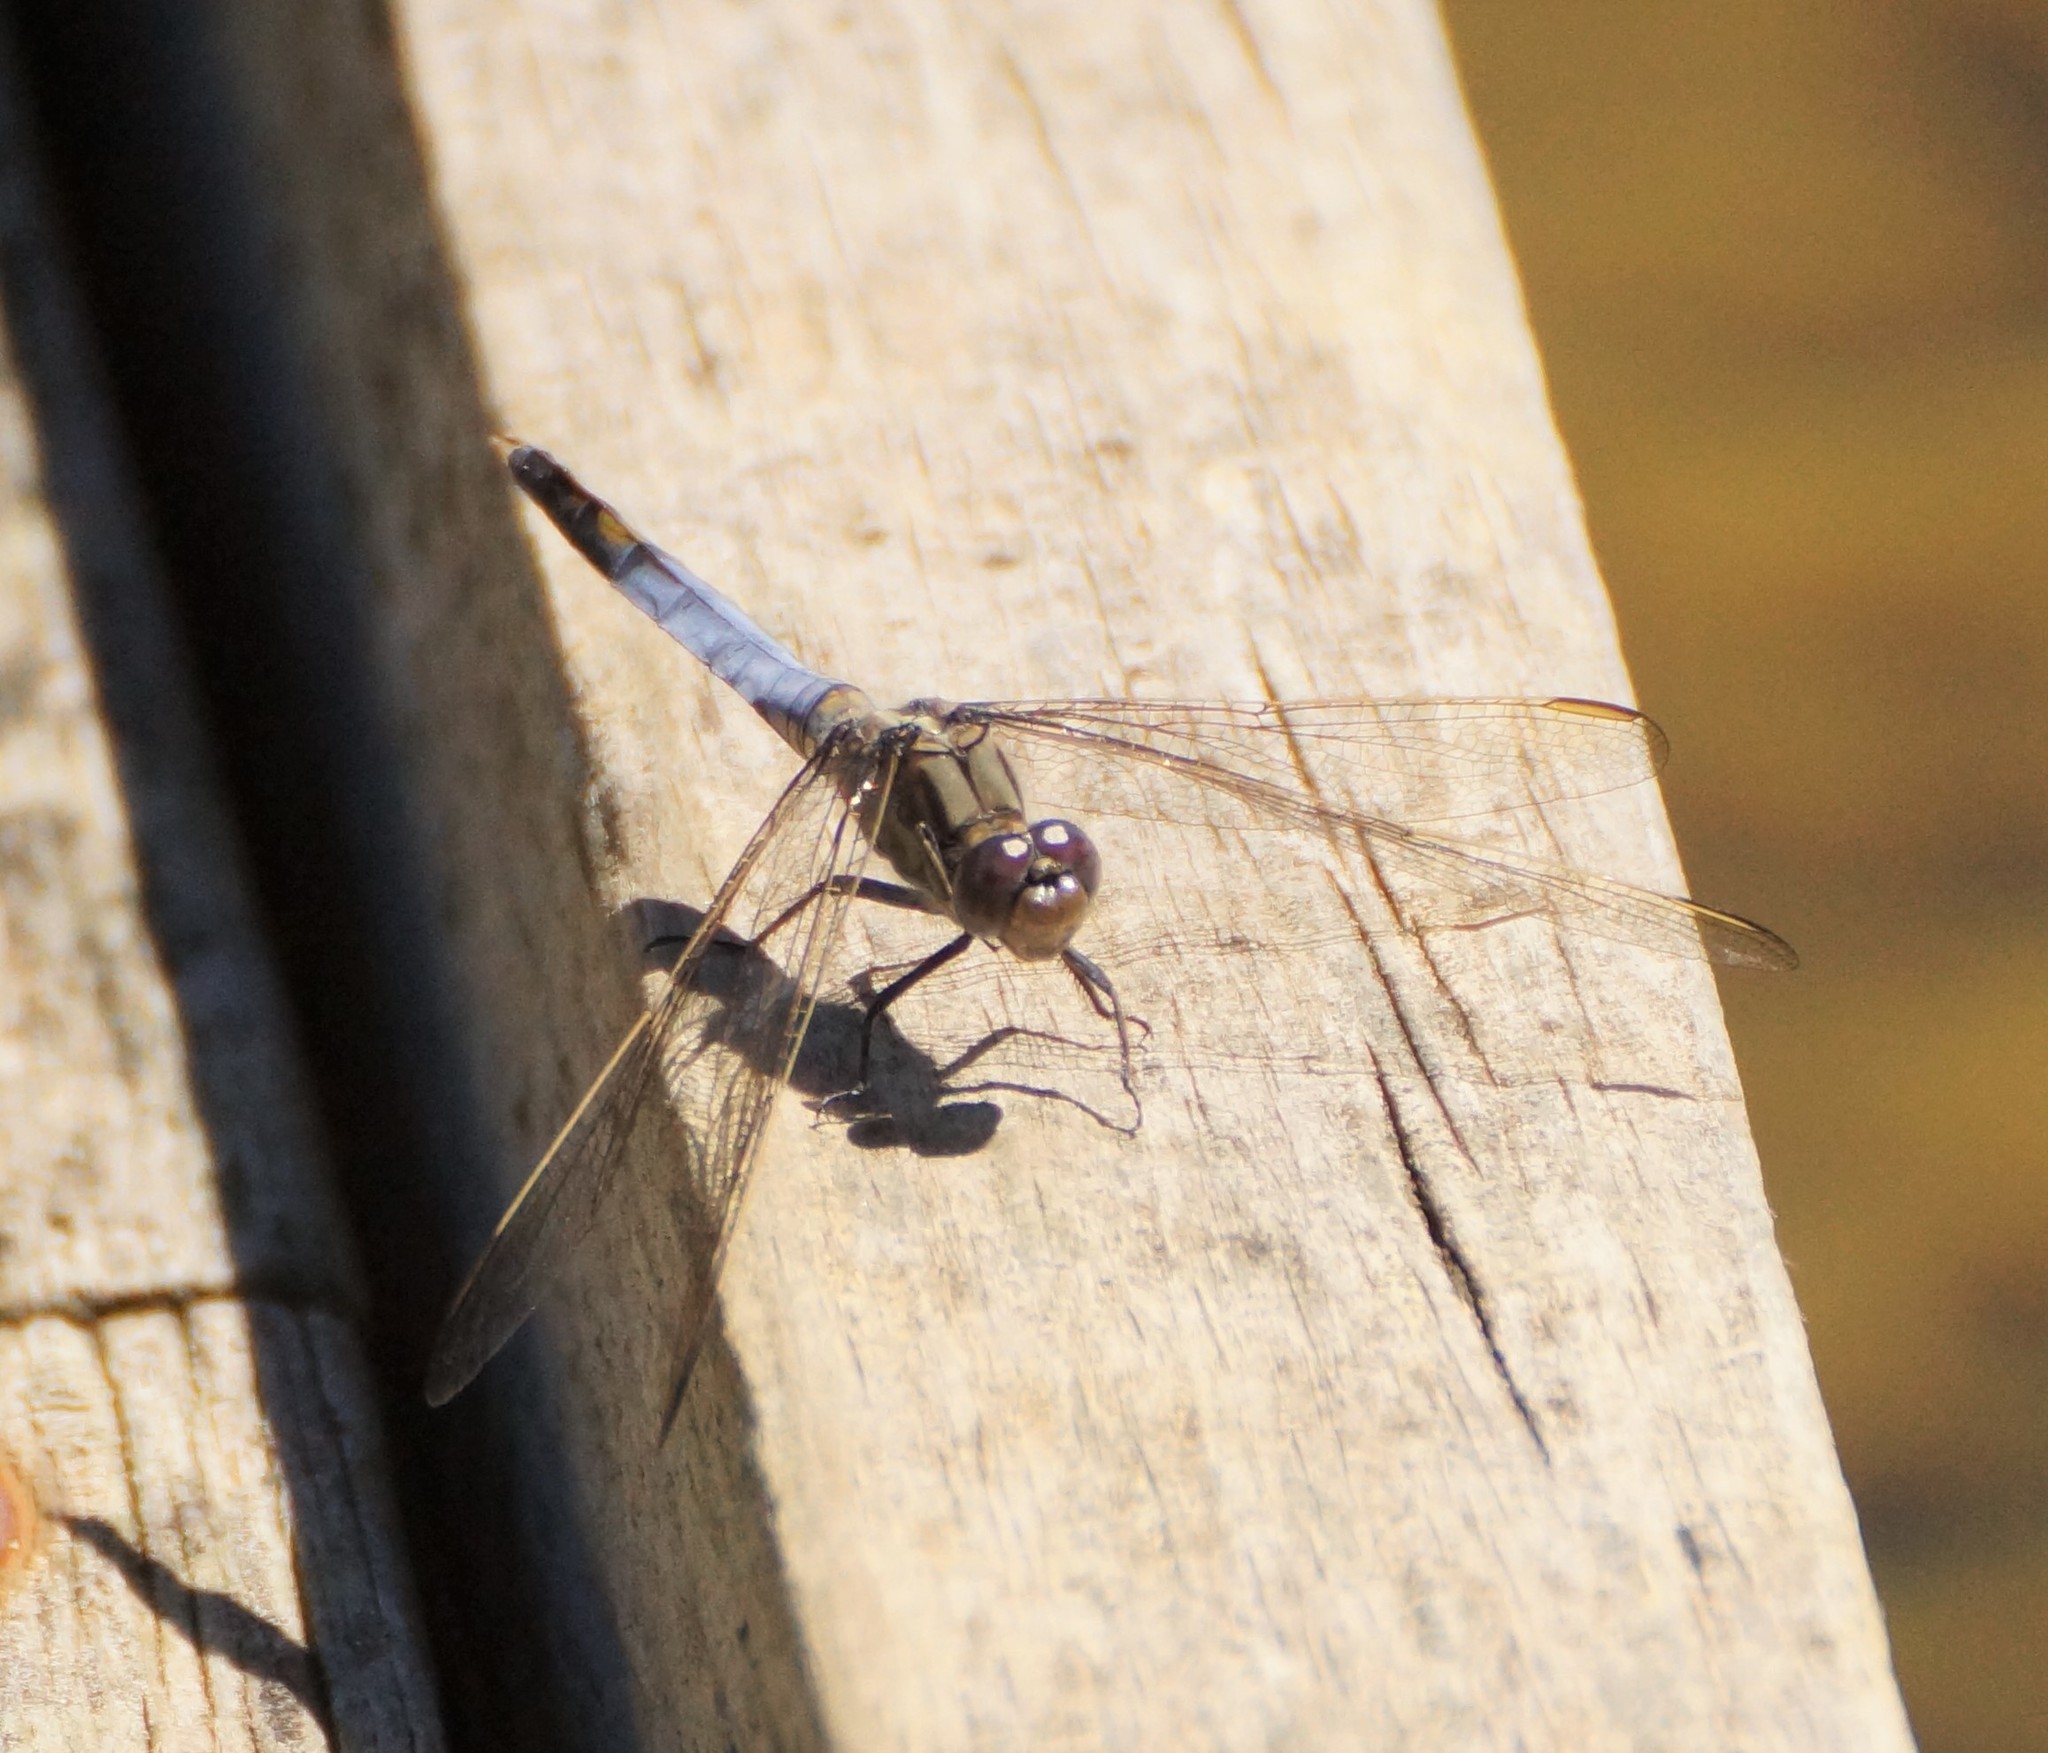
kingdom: Animalia
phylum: Arthropoda
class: Insecta
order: Odonata
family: Libellulidae
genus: Orthetrum
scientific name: Orthetrum caledonicum
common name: Blue skimmer
